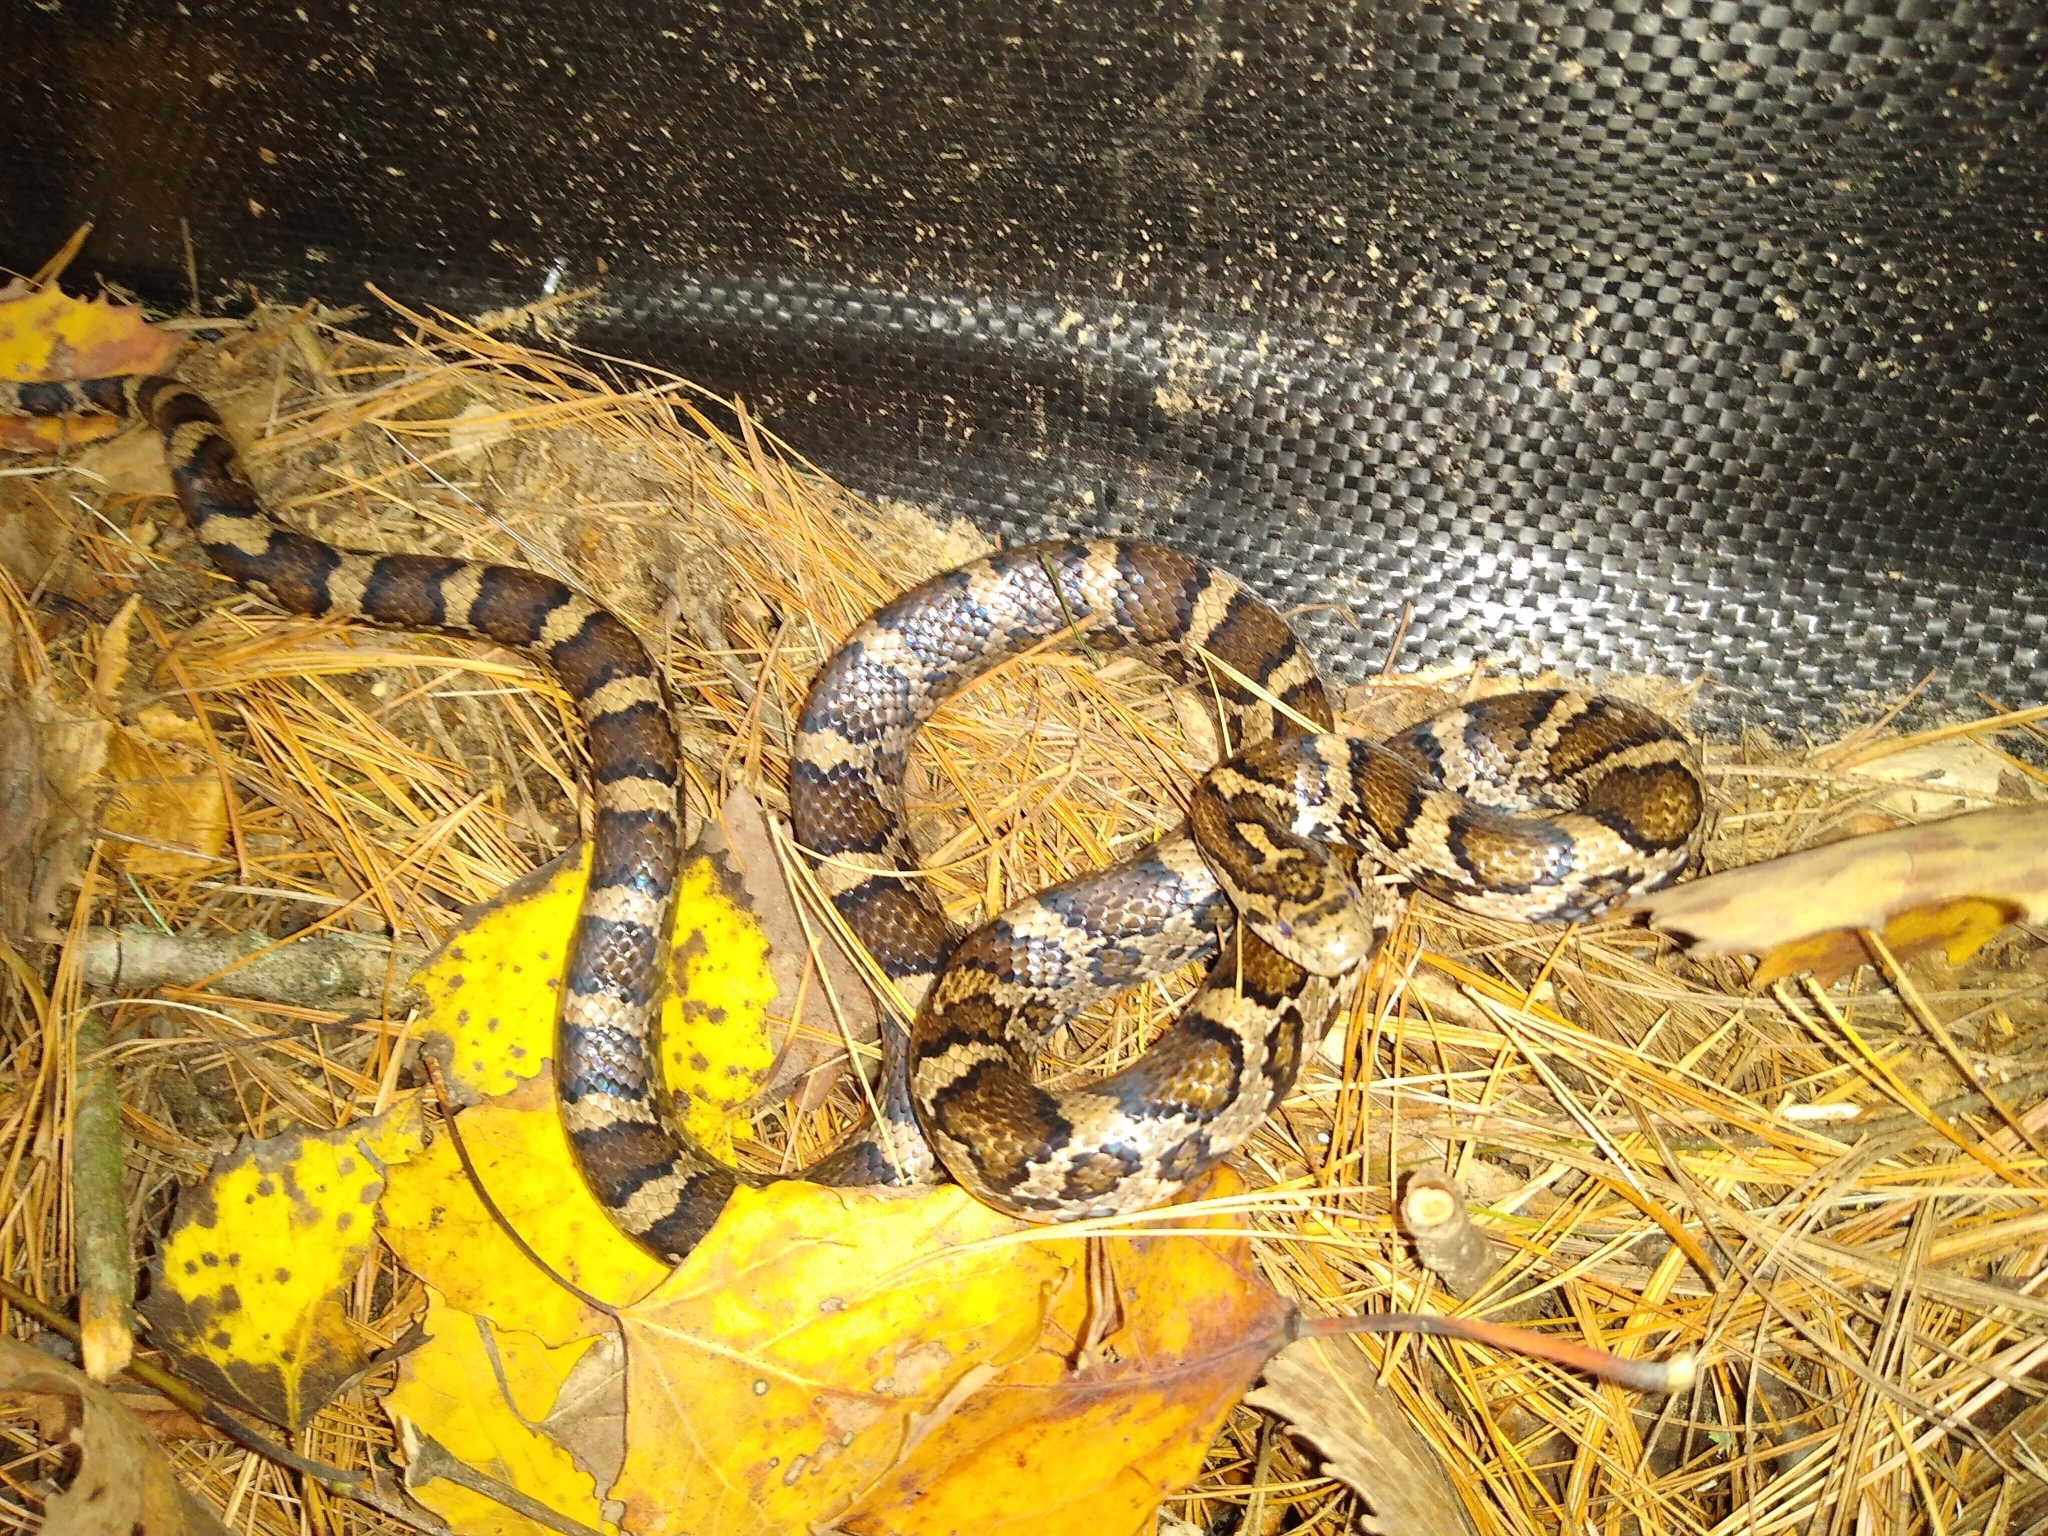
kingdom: Animalia
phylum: Chordata
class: Squamata
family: Colubridae
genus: Lampropeltis
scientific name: Lampropeltis triangulum
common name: Eastern milksnake
